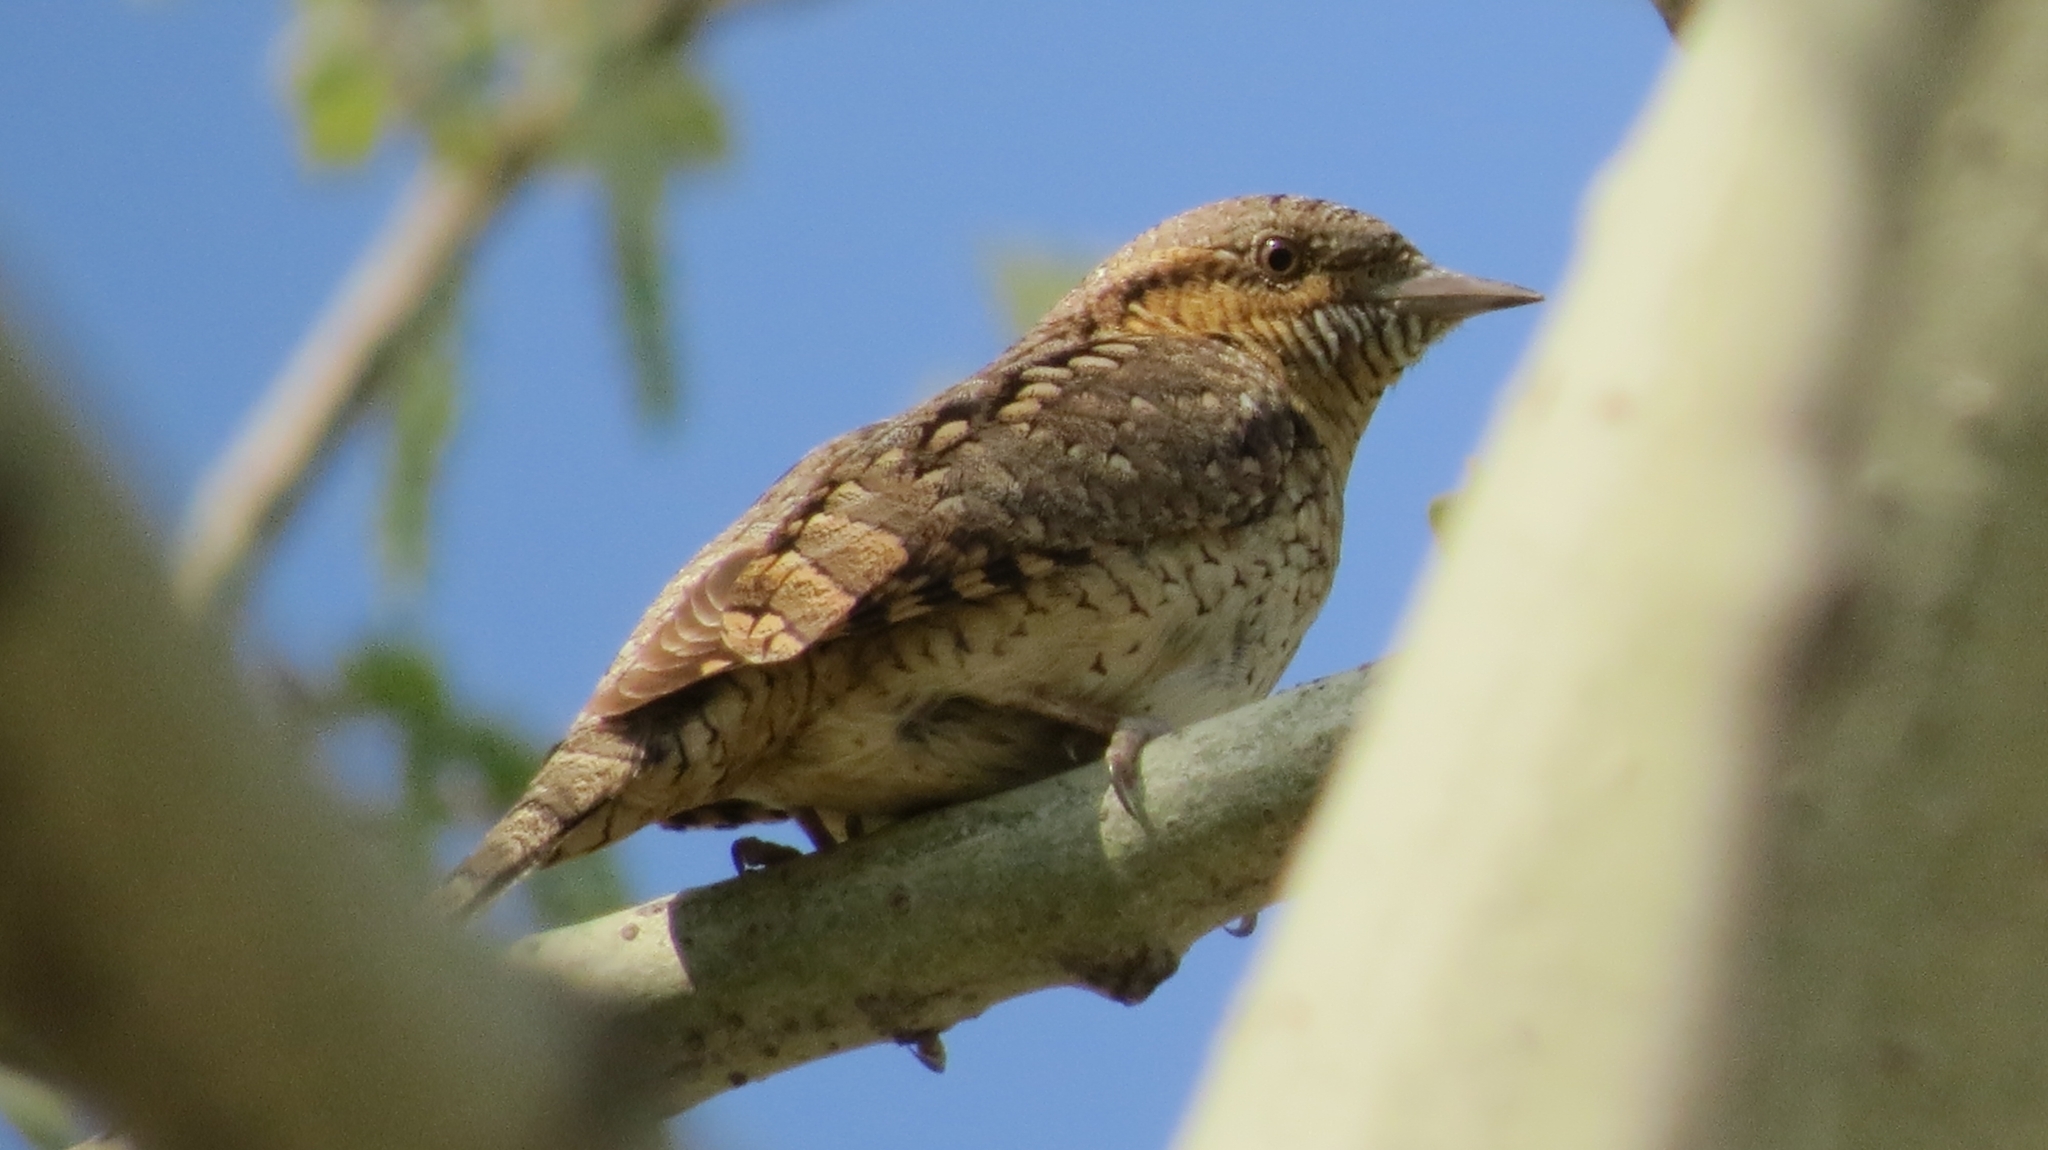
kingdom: Animalia
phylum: Chordata
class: Aves
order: Piciformes
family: Picidae
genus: Jynx
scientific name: Jynx torquilla
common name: Eurasian wryneck
